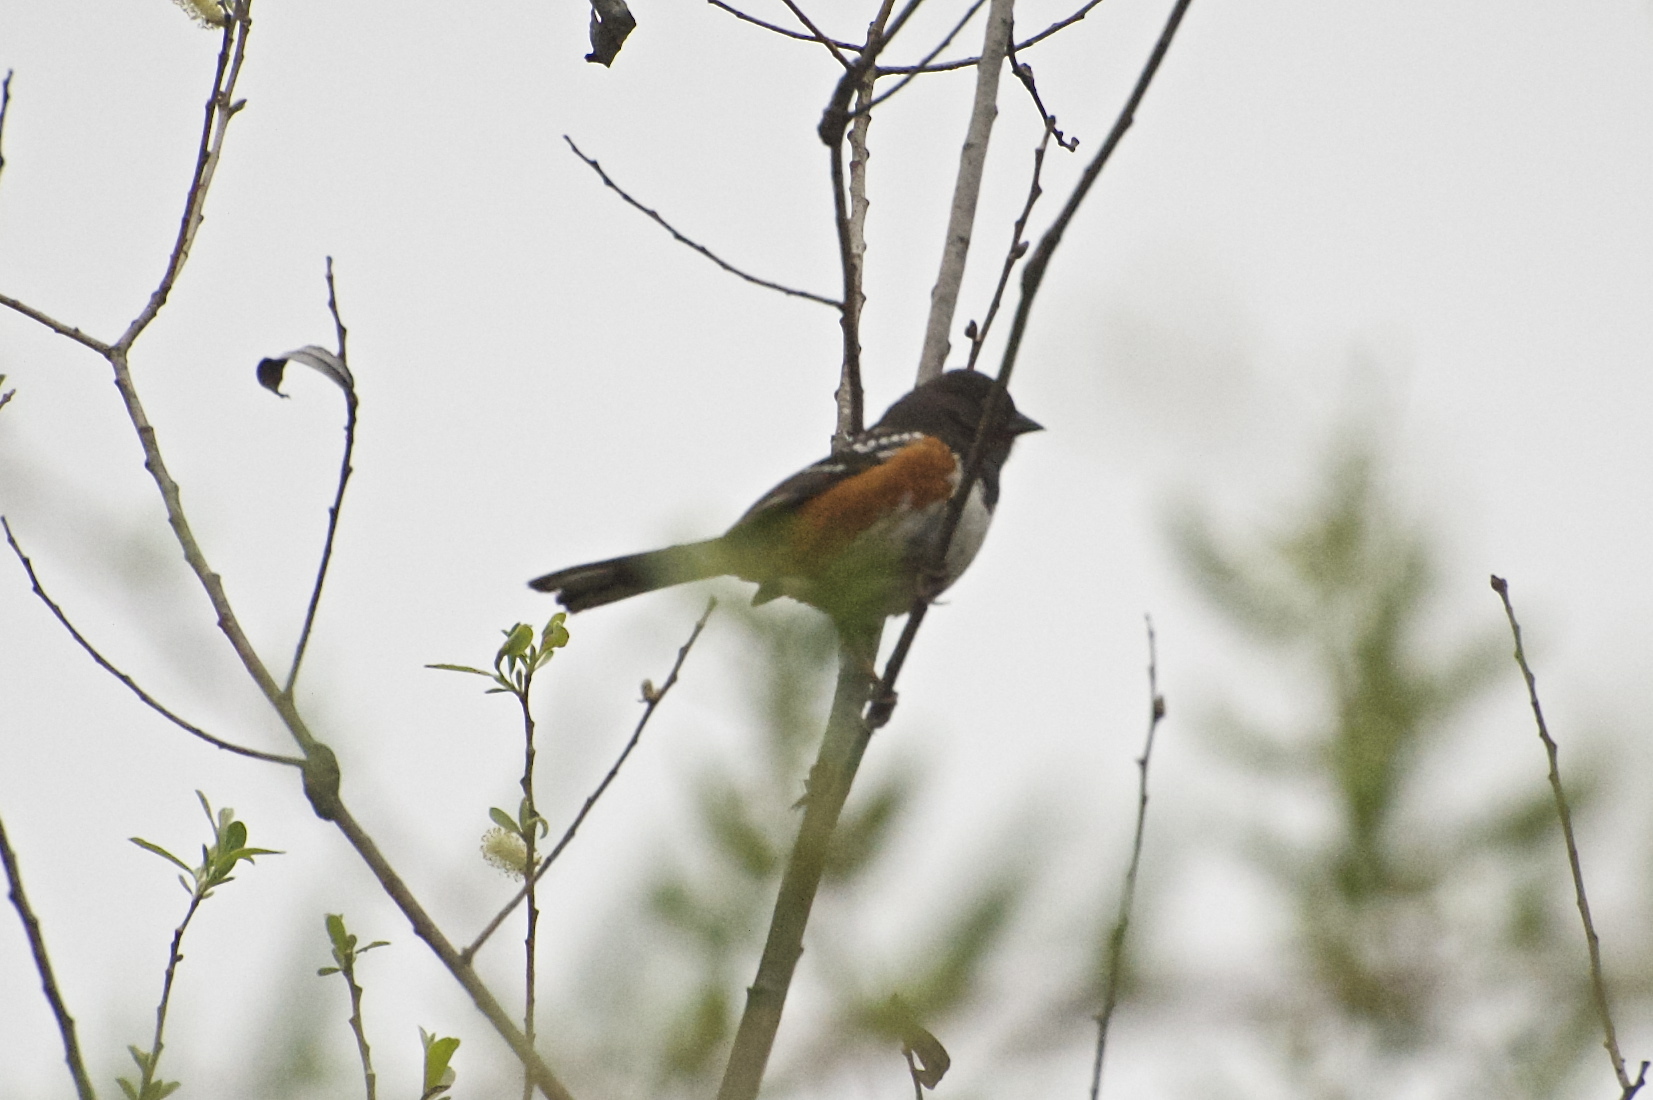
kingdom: Animalia
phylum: Chordata
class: Aves
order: Passeriformes
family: Passerellidae
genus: Pipilo
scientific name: Pipilo maculatus
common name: Spotted towhee
